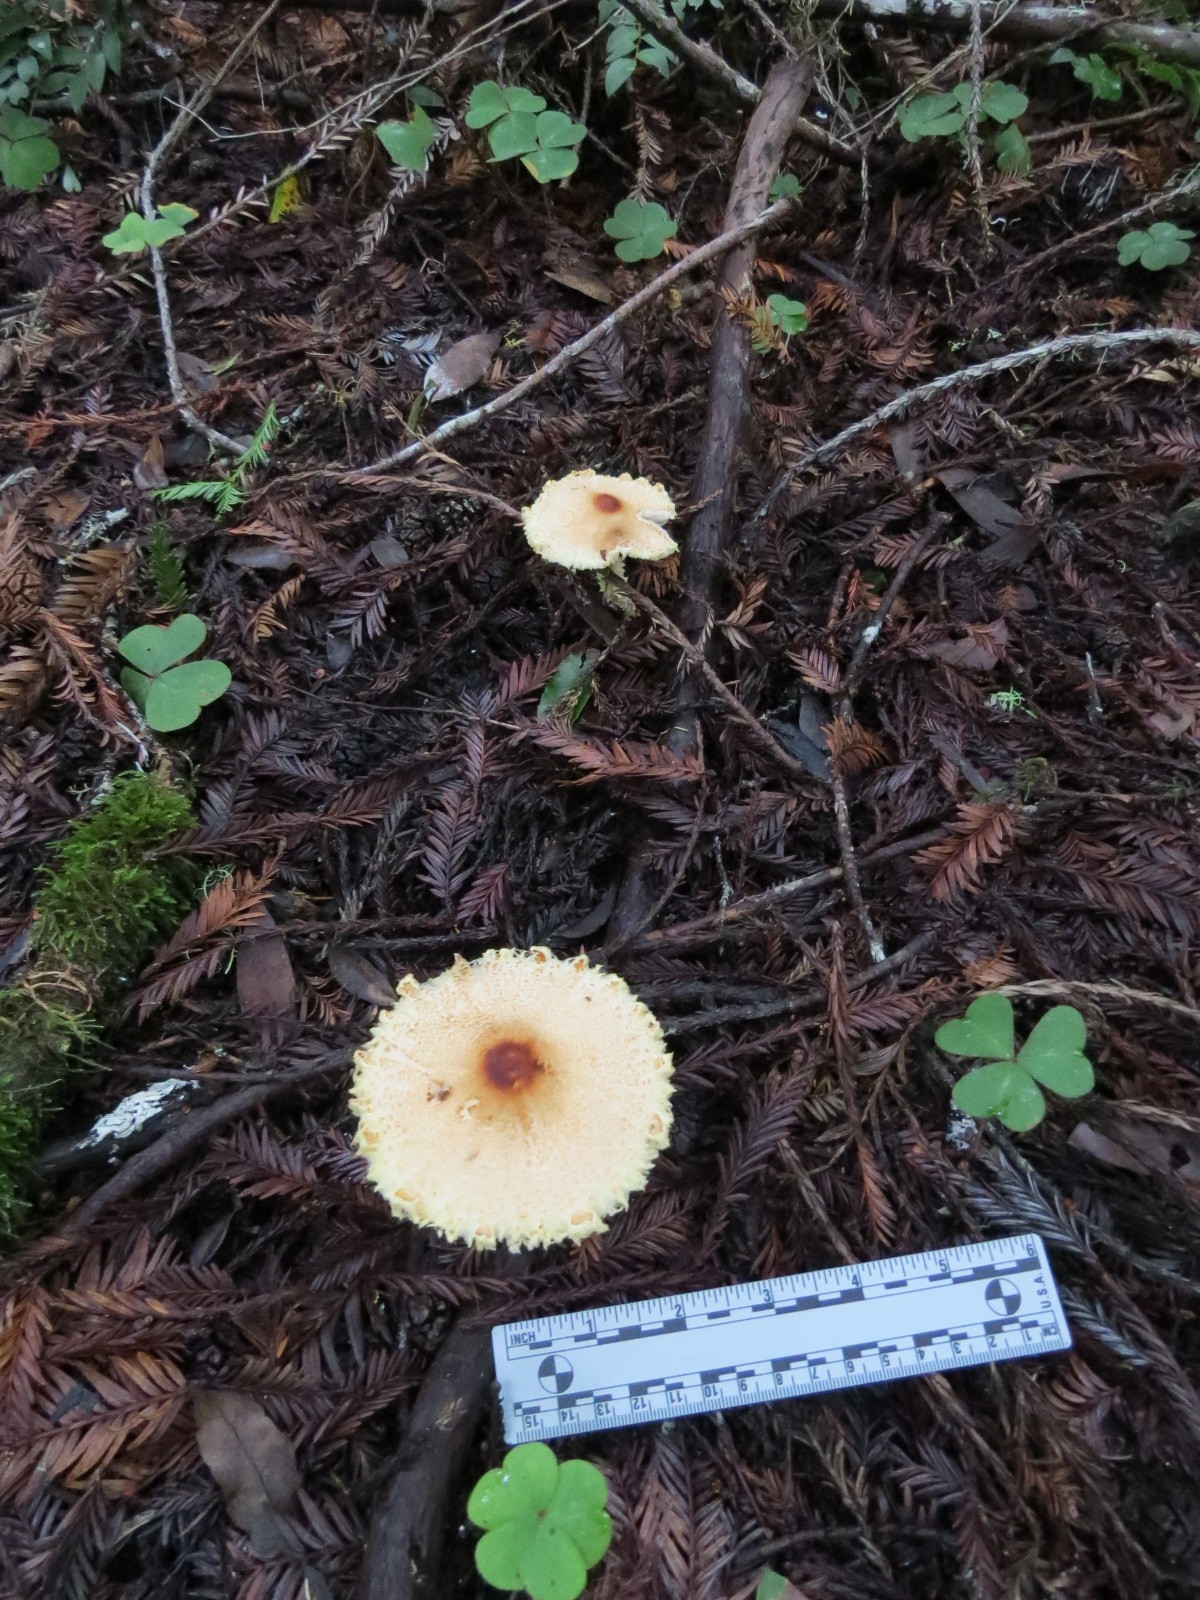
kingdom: Fungi
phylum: Basidiomycota
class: Agaricomycetes
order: Agaricales
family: Agaricaceae
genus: Lepiota
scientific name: Lepiota magnispora
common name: Yellowfoot dapperling
